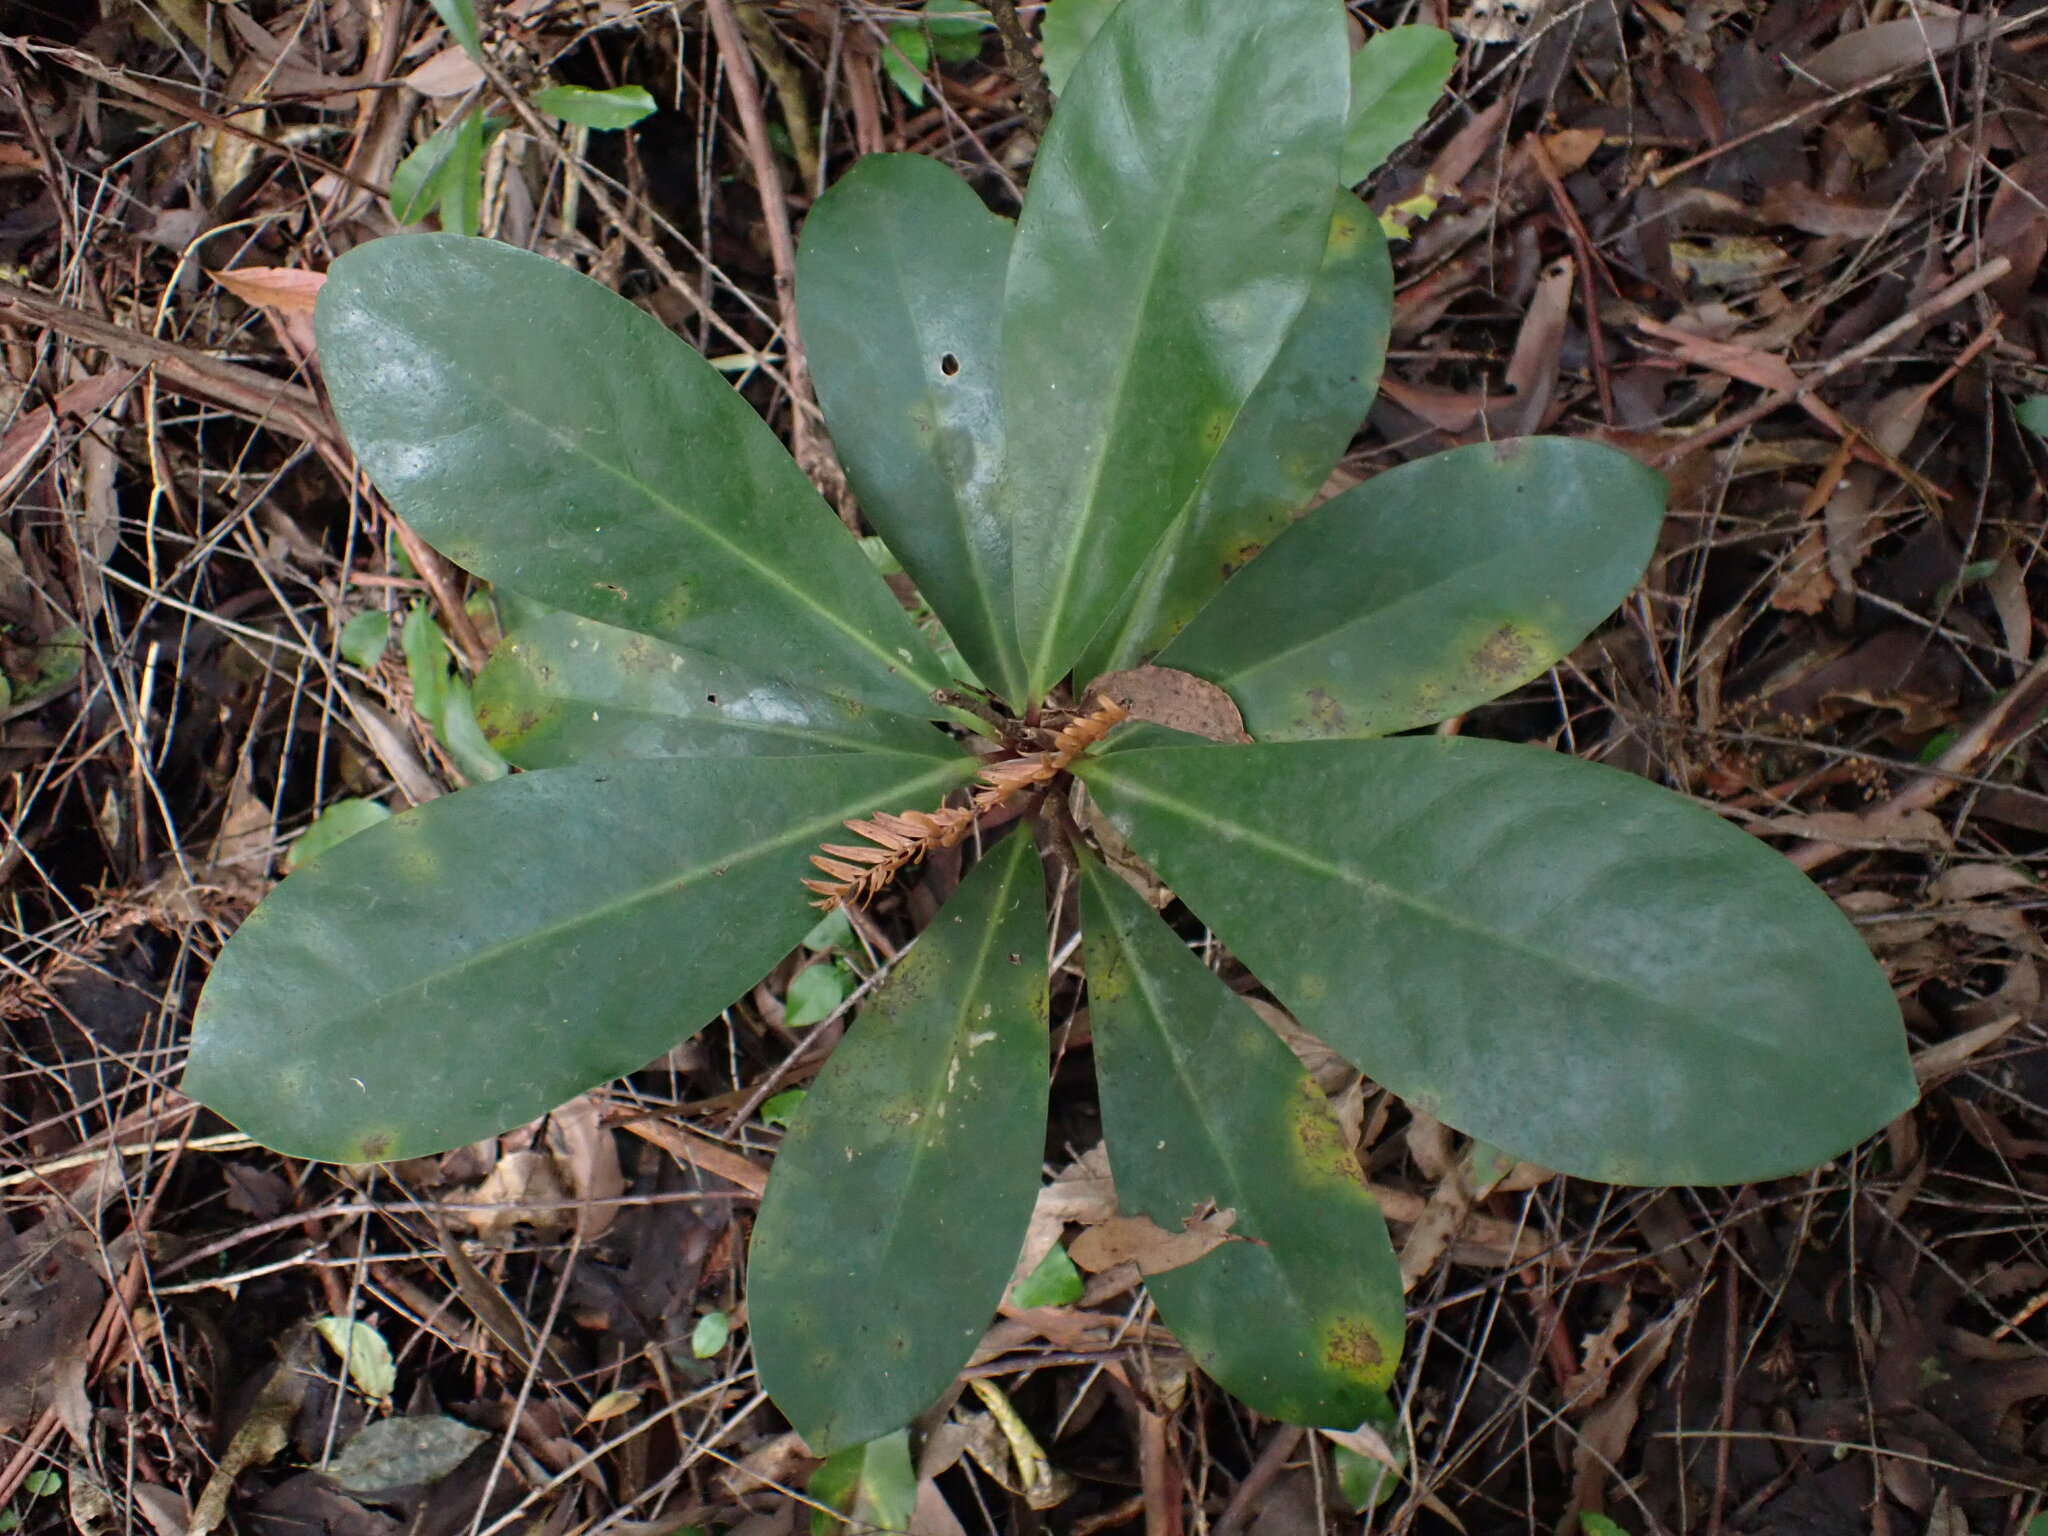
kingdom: Plantae
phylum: Tracheophyta
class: Magnoliopsida
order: Cucurbitales
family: Corynocarpaceae
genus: Corynocarpus
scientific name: Corynocarpus laevigatus
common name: New zealand laurel
